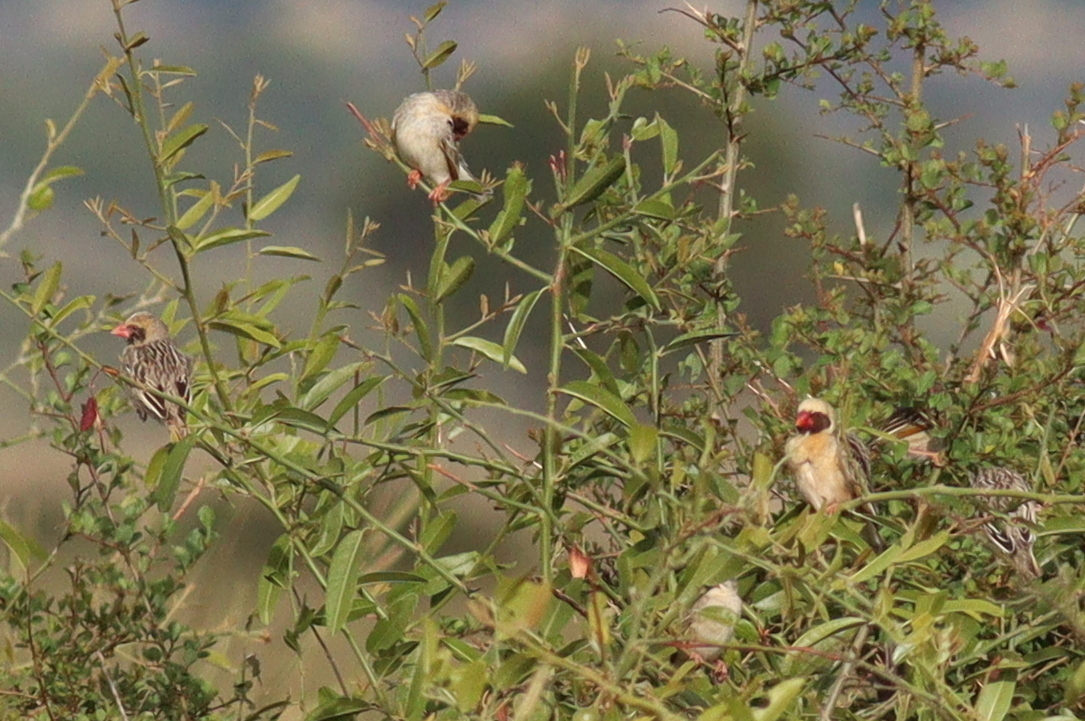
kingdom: Animalia
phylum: Chordata
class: Aves
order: Passeriformes
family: Ploceidae
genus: Quelea
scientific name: Quelea quelea
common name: Red-billed quelea
